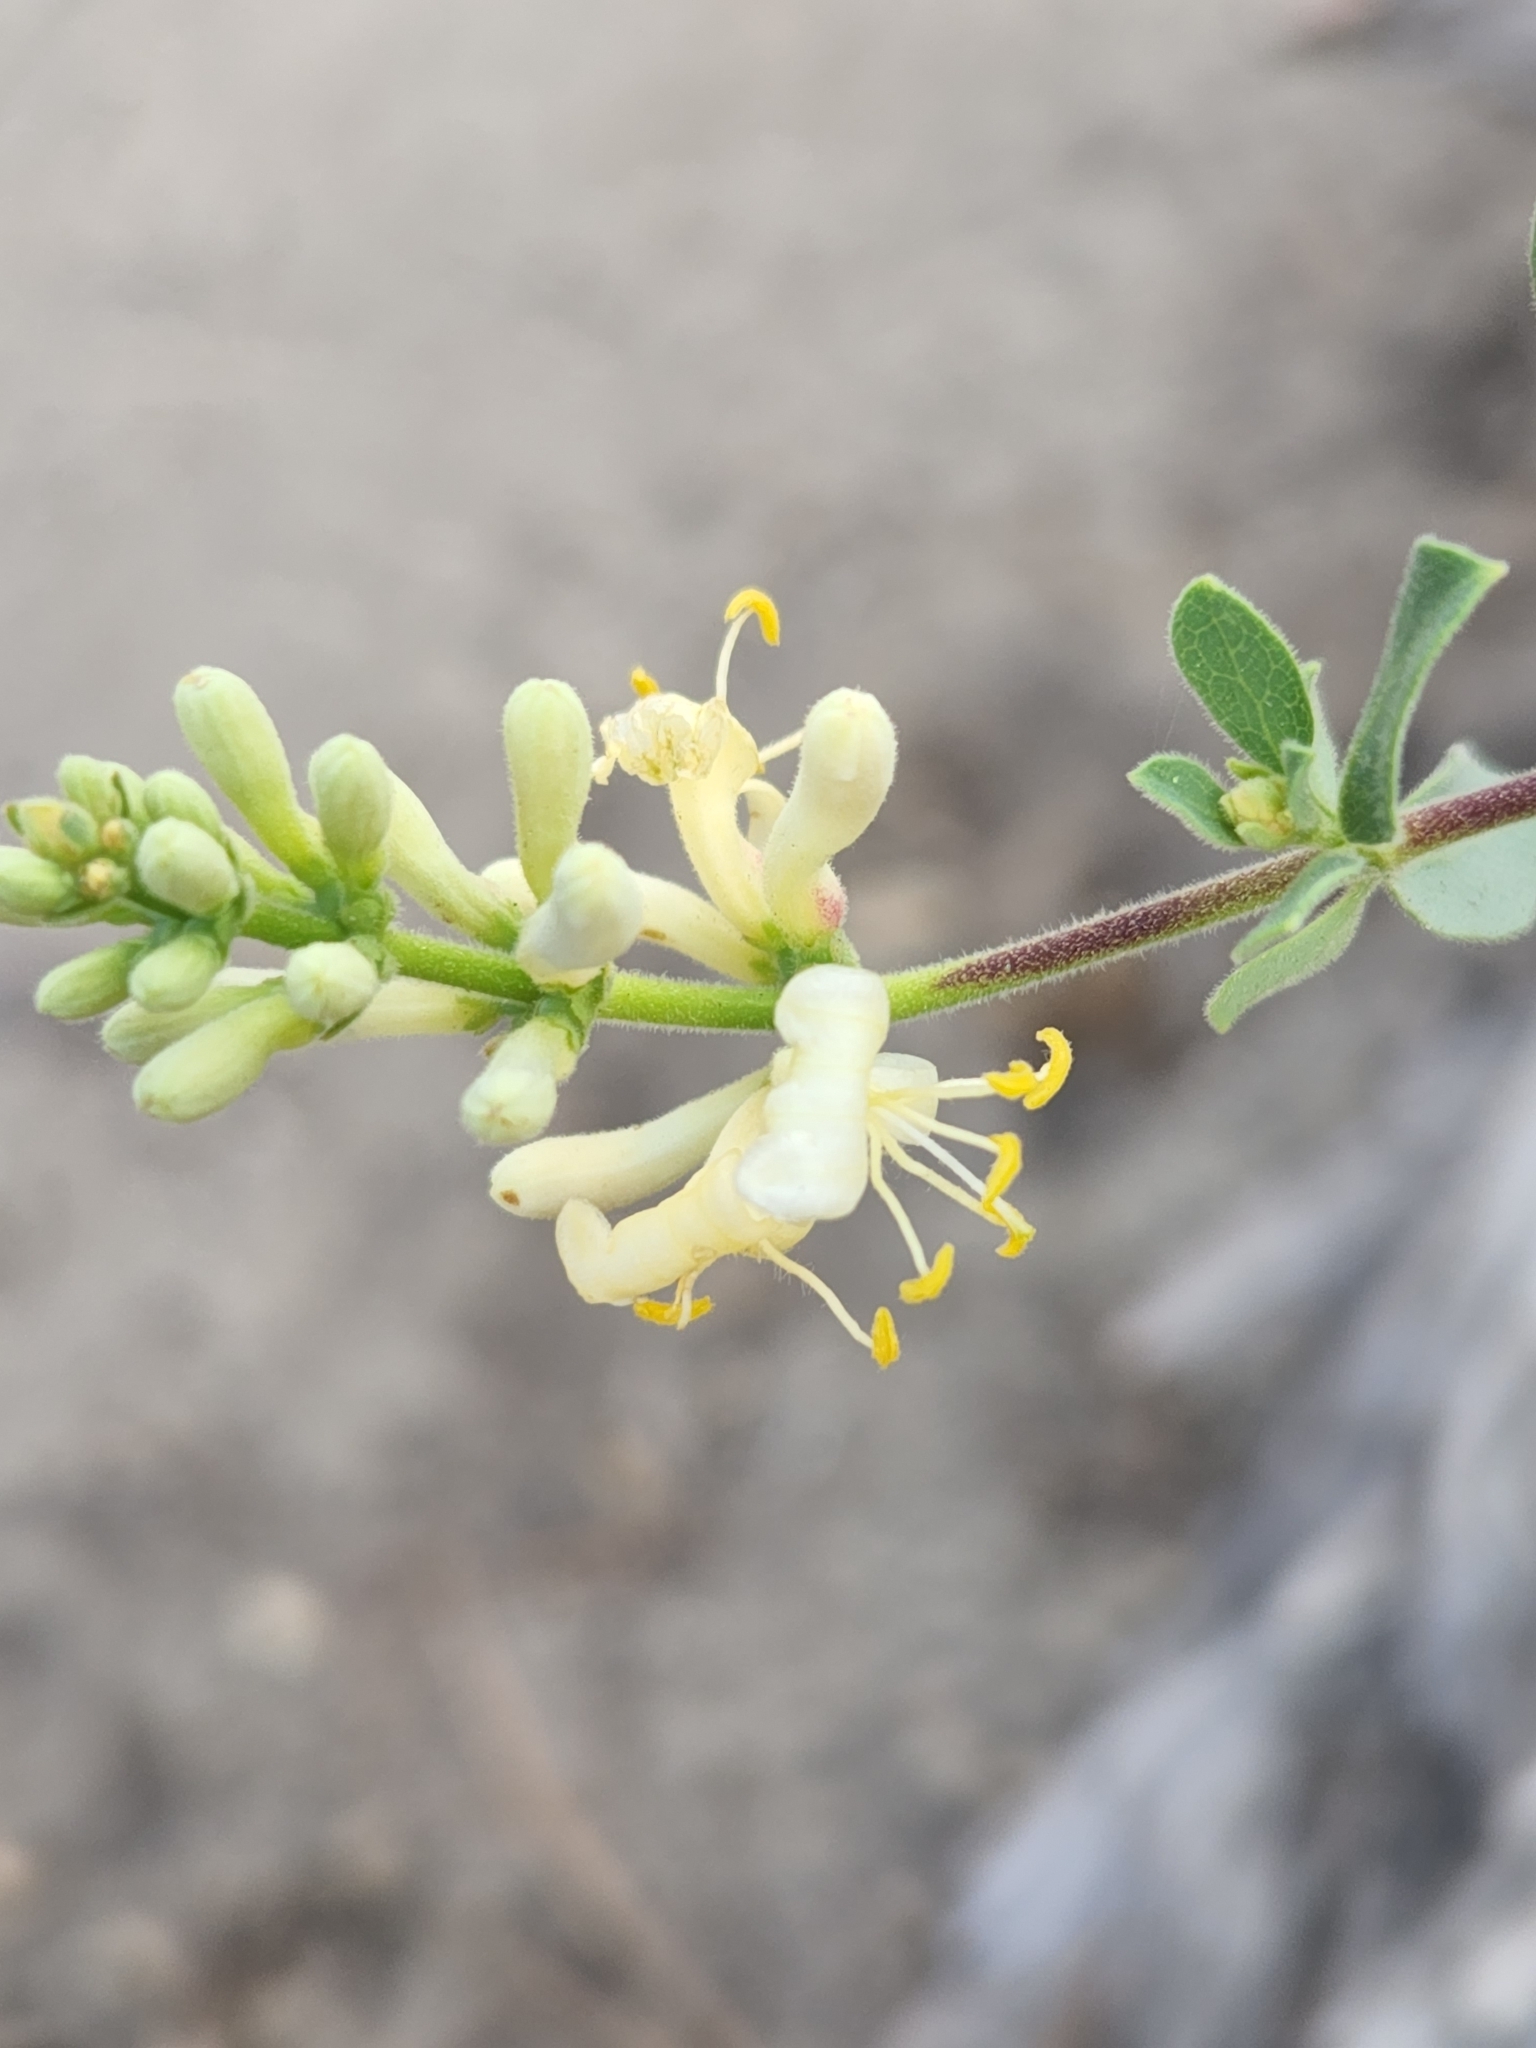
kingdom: Plantae
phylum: Tracheophyta
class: Magnoliopsida
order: Dipsacales
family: Caprifoliaceae
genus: Lonicera
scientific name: Lonicera subspicata
